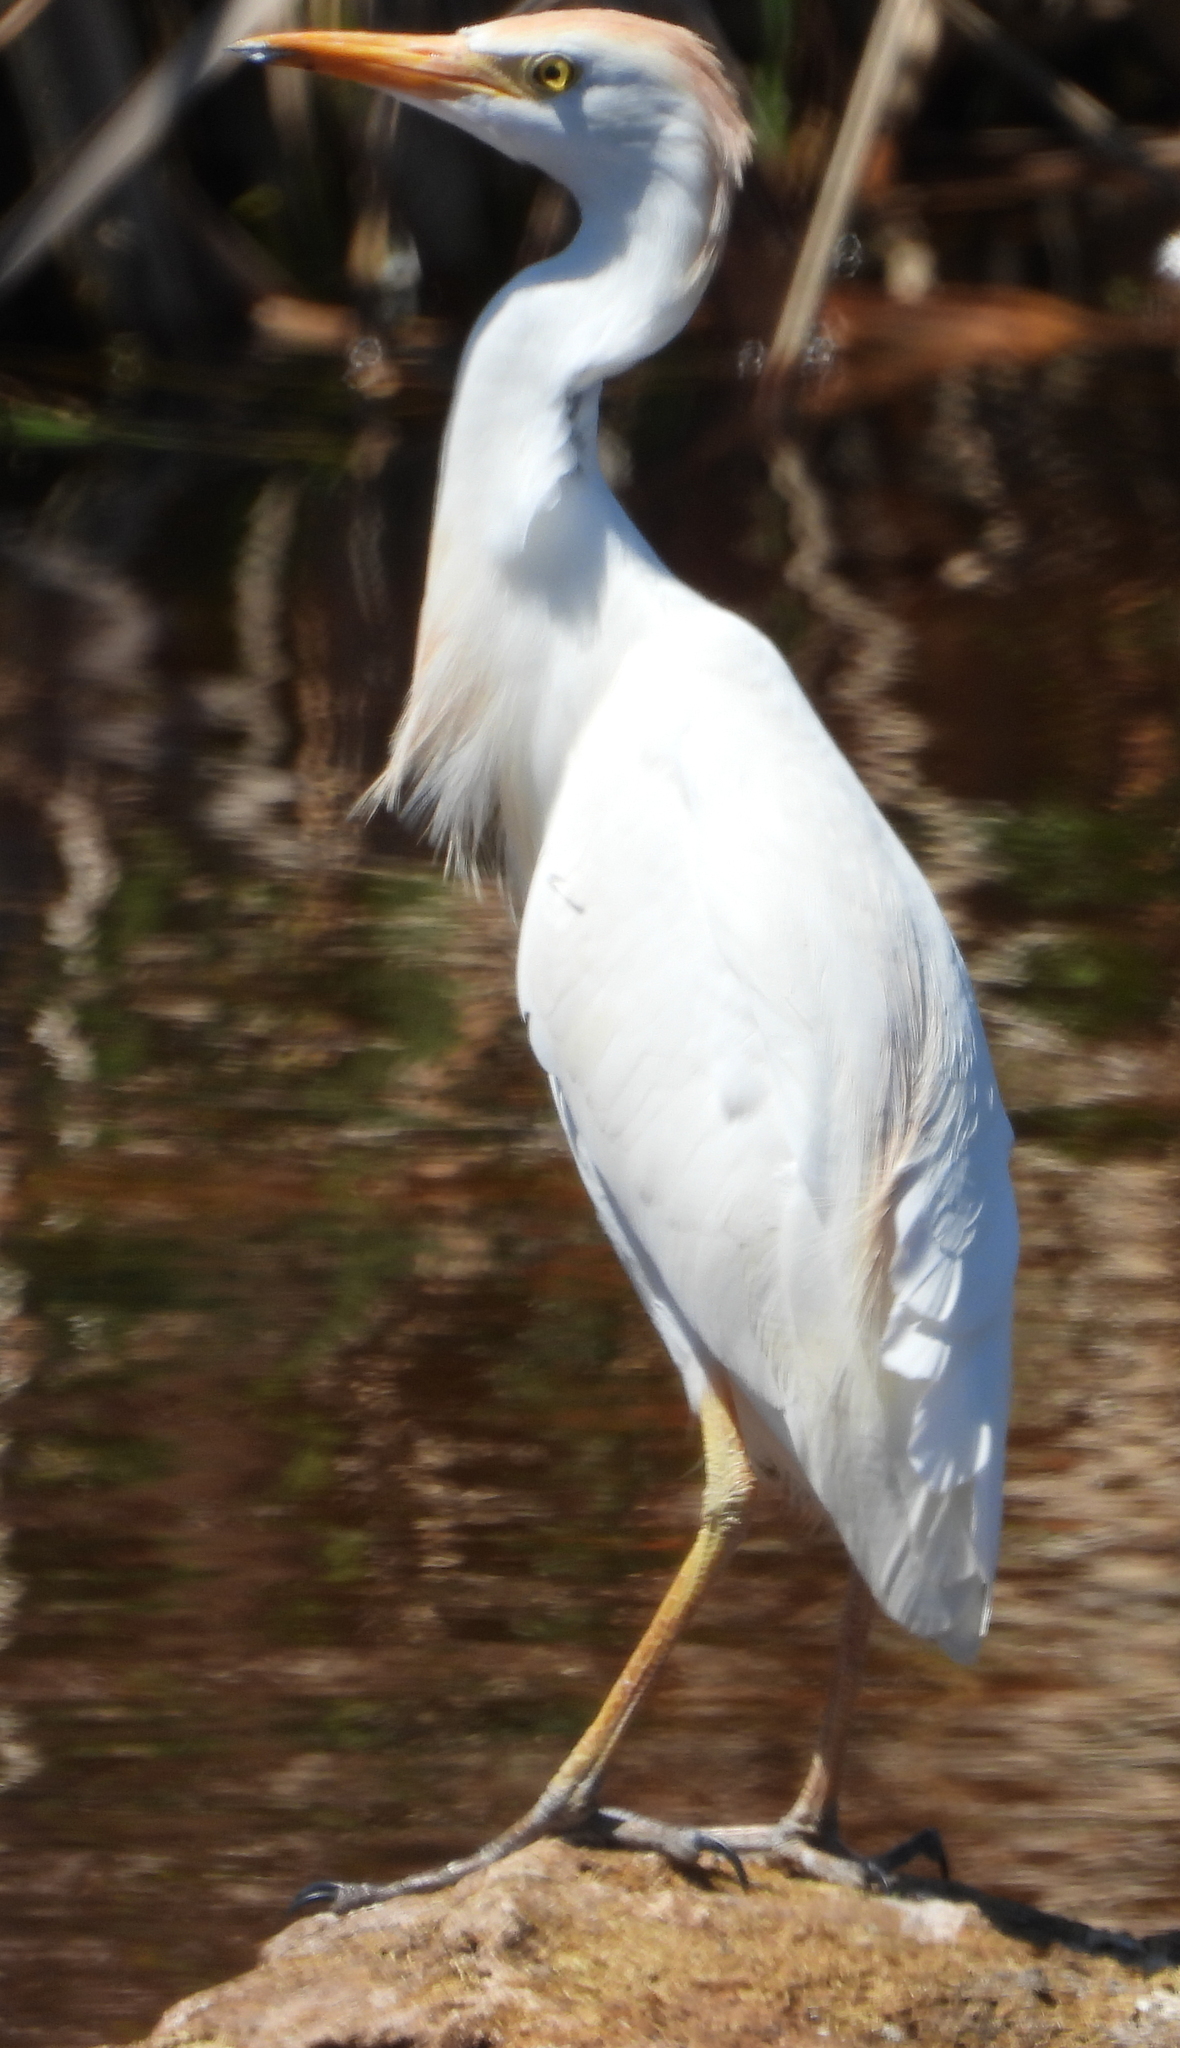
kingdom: Animalia
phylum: Chordata
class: Aves
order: Pelecaniformes
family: Ardeidae
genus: Bubulcus
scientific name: Bubulcus ibis
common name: Cattle egret
